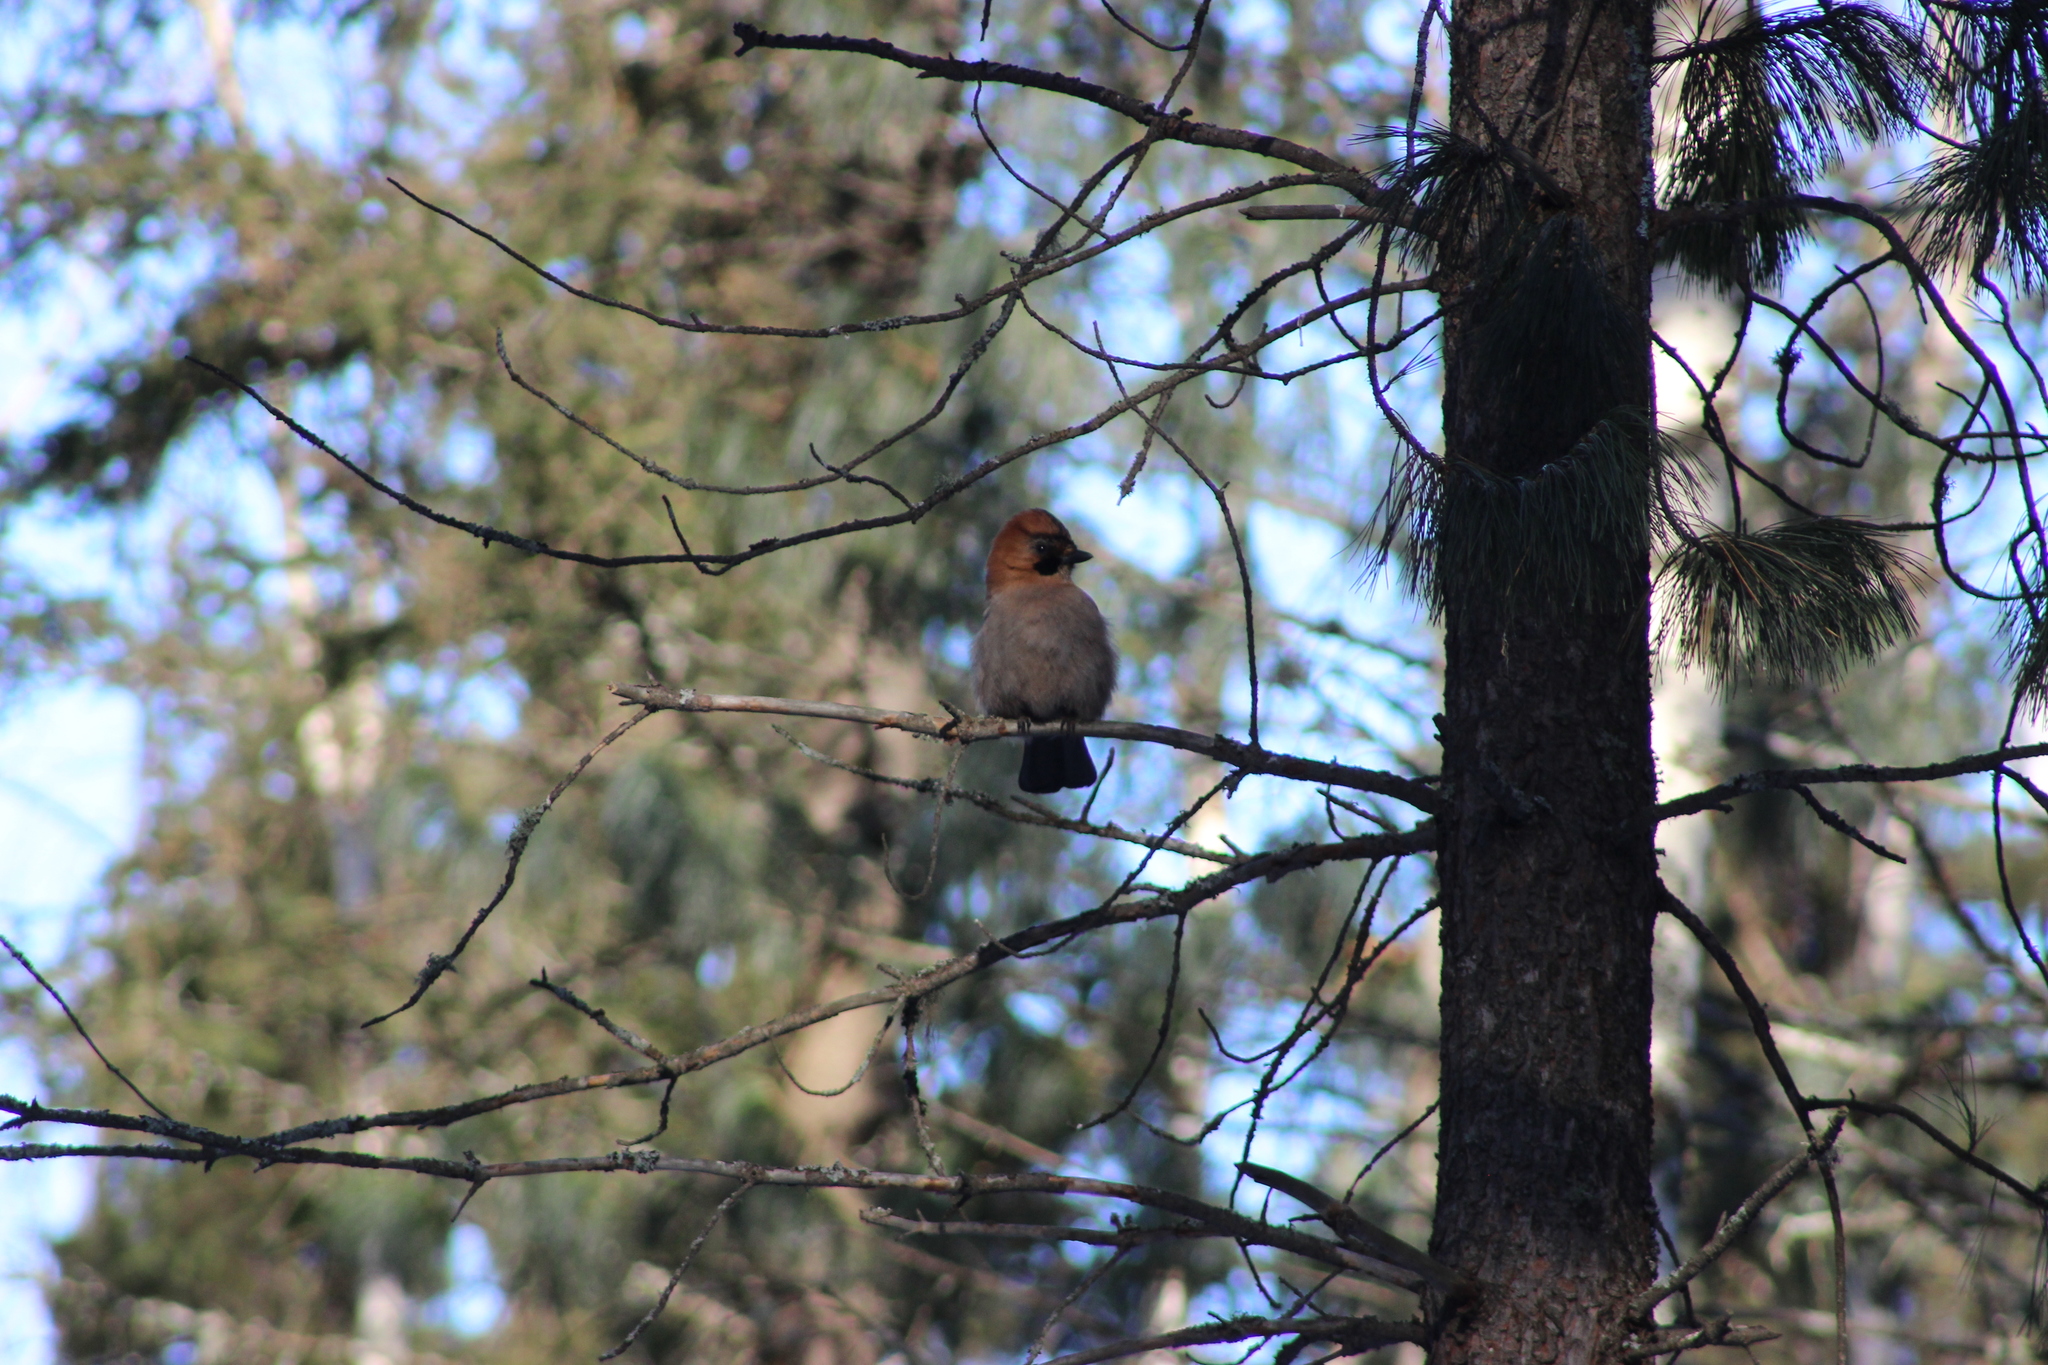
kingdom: Animalia
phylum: Chordata
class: Aves
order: Passeriformes
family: Corvidae
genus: Garrulus
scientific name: Garrulus glandarius
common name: Eurasian jay
